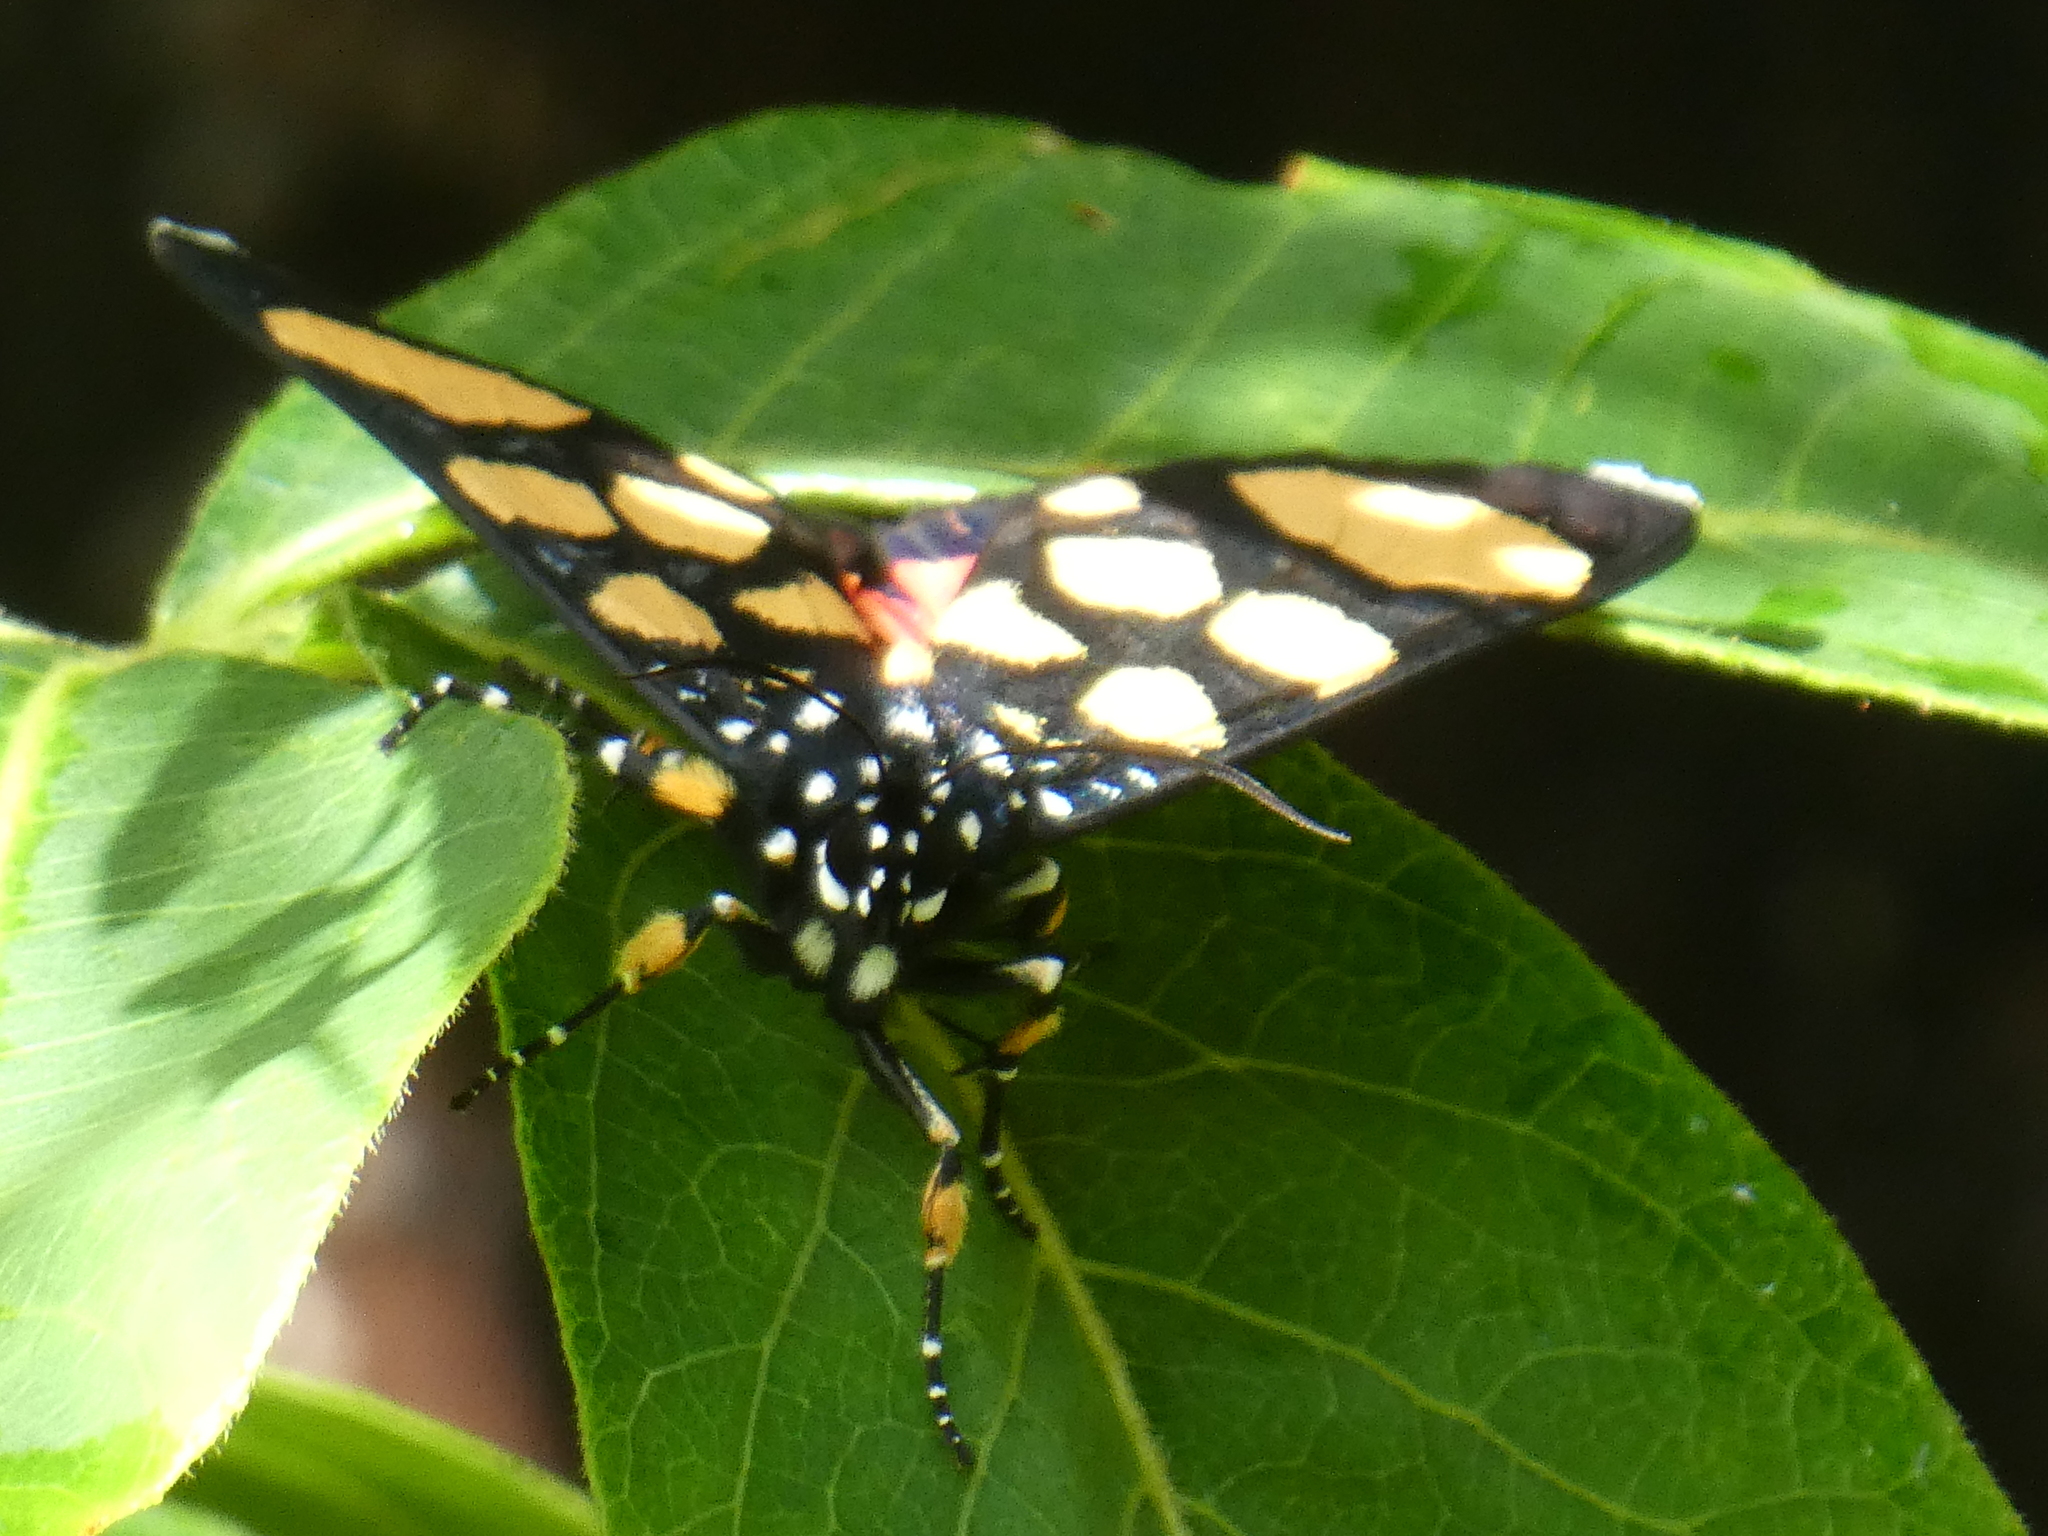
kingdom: Animalia
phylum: Arthropoda
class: Insecta
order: Lepidoptera
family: Noctuidae
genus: Heraclia
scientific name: Heraclia superba
